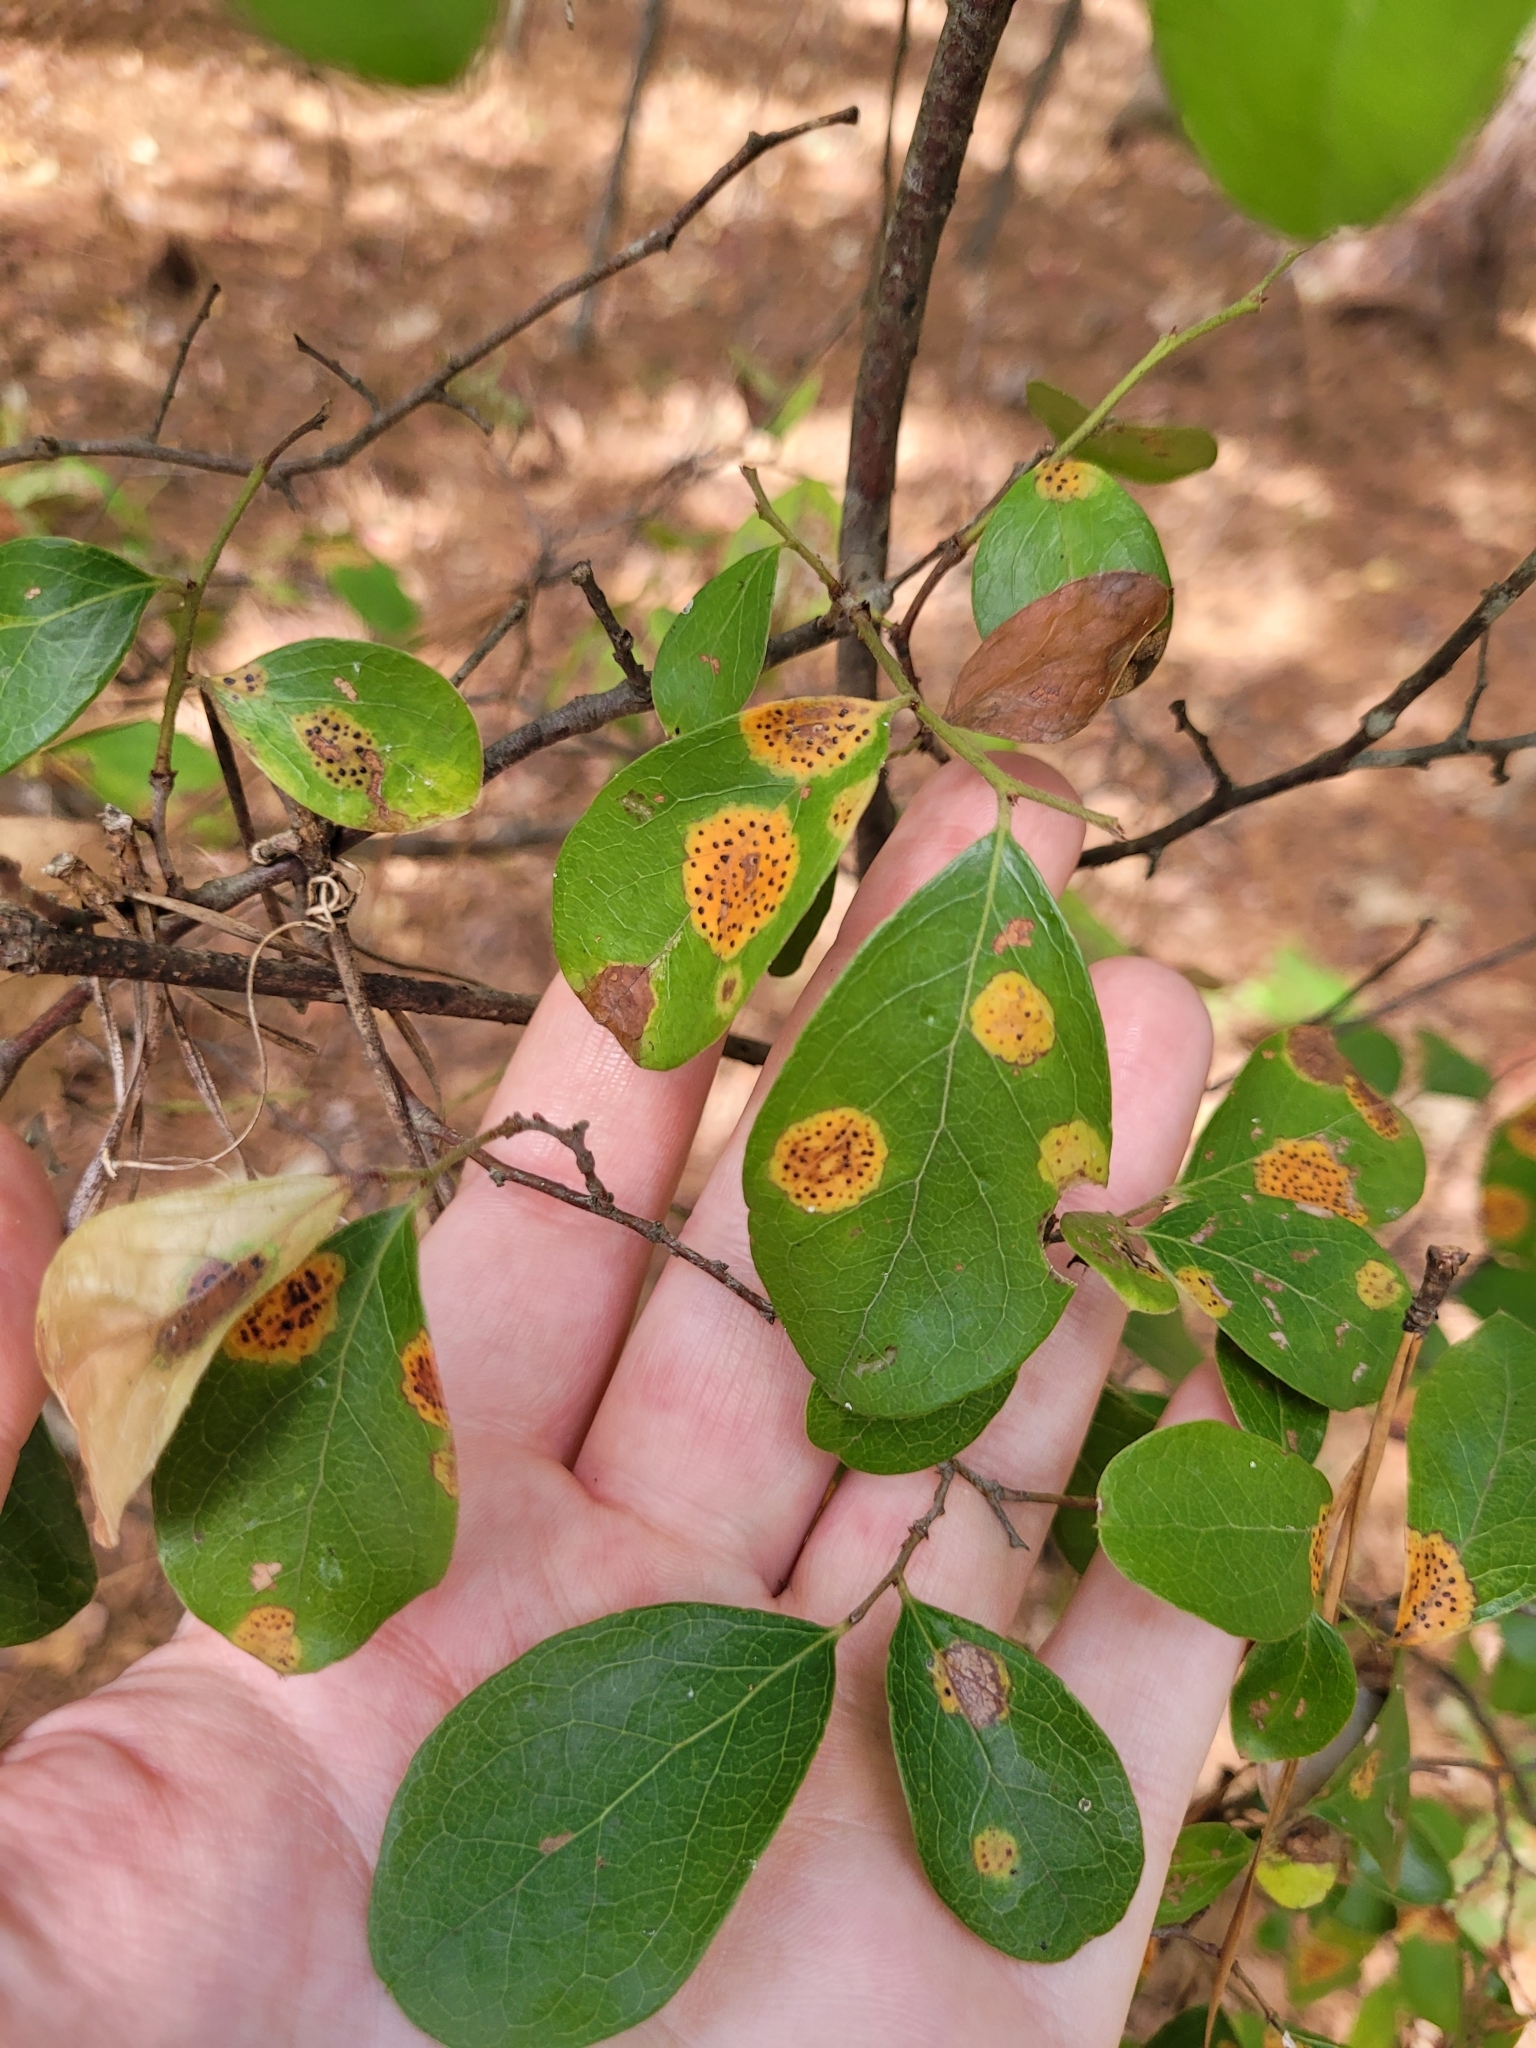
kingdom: Plantae
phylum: Tracheophyta
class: Magnoliopsida
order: Ericales
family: Ericaceae
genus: Vaccinium
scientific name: Vaccinium arboreum
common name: Farkleberry
